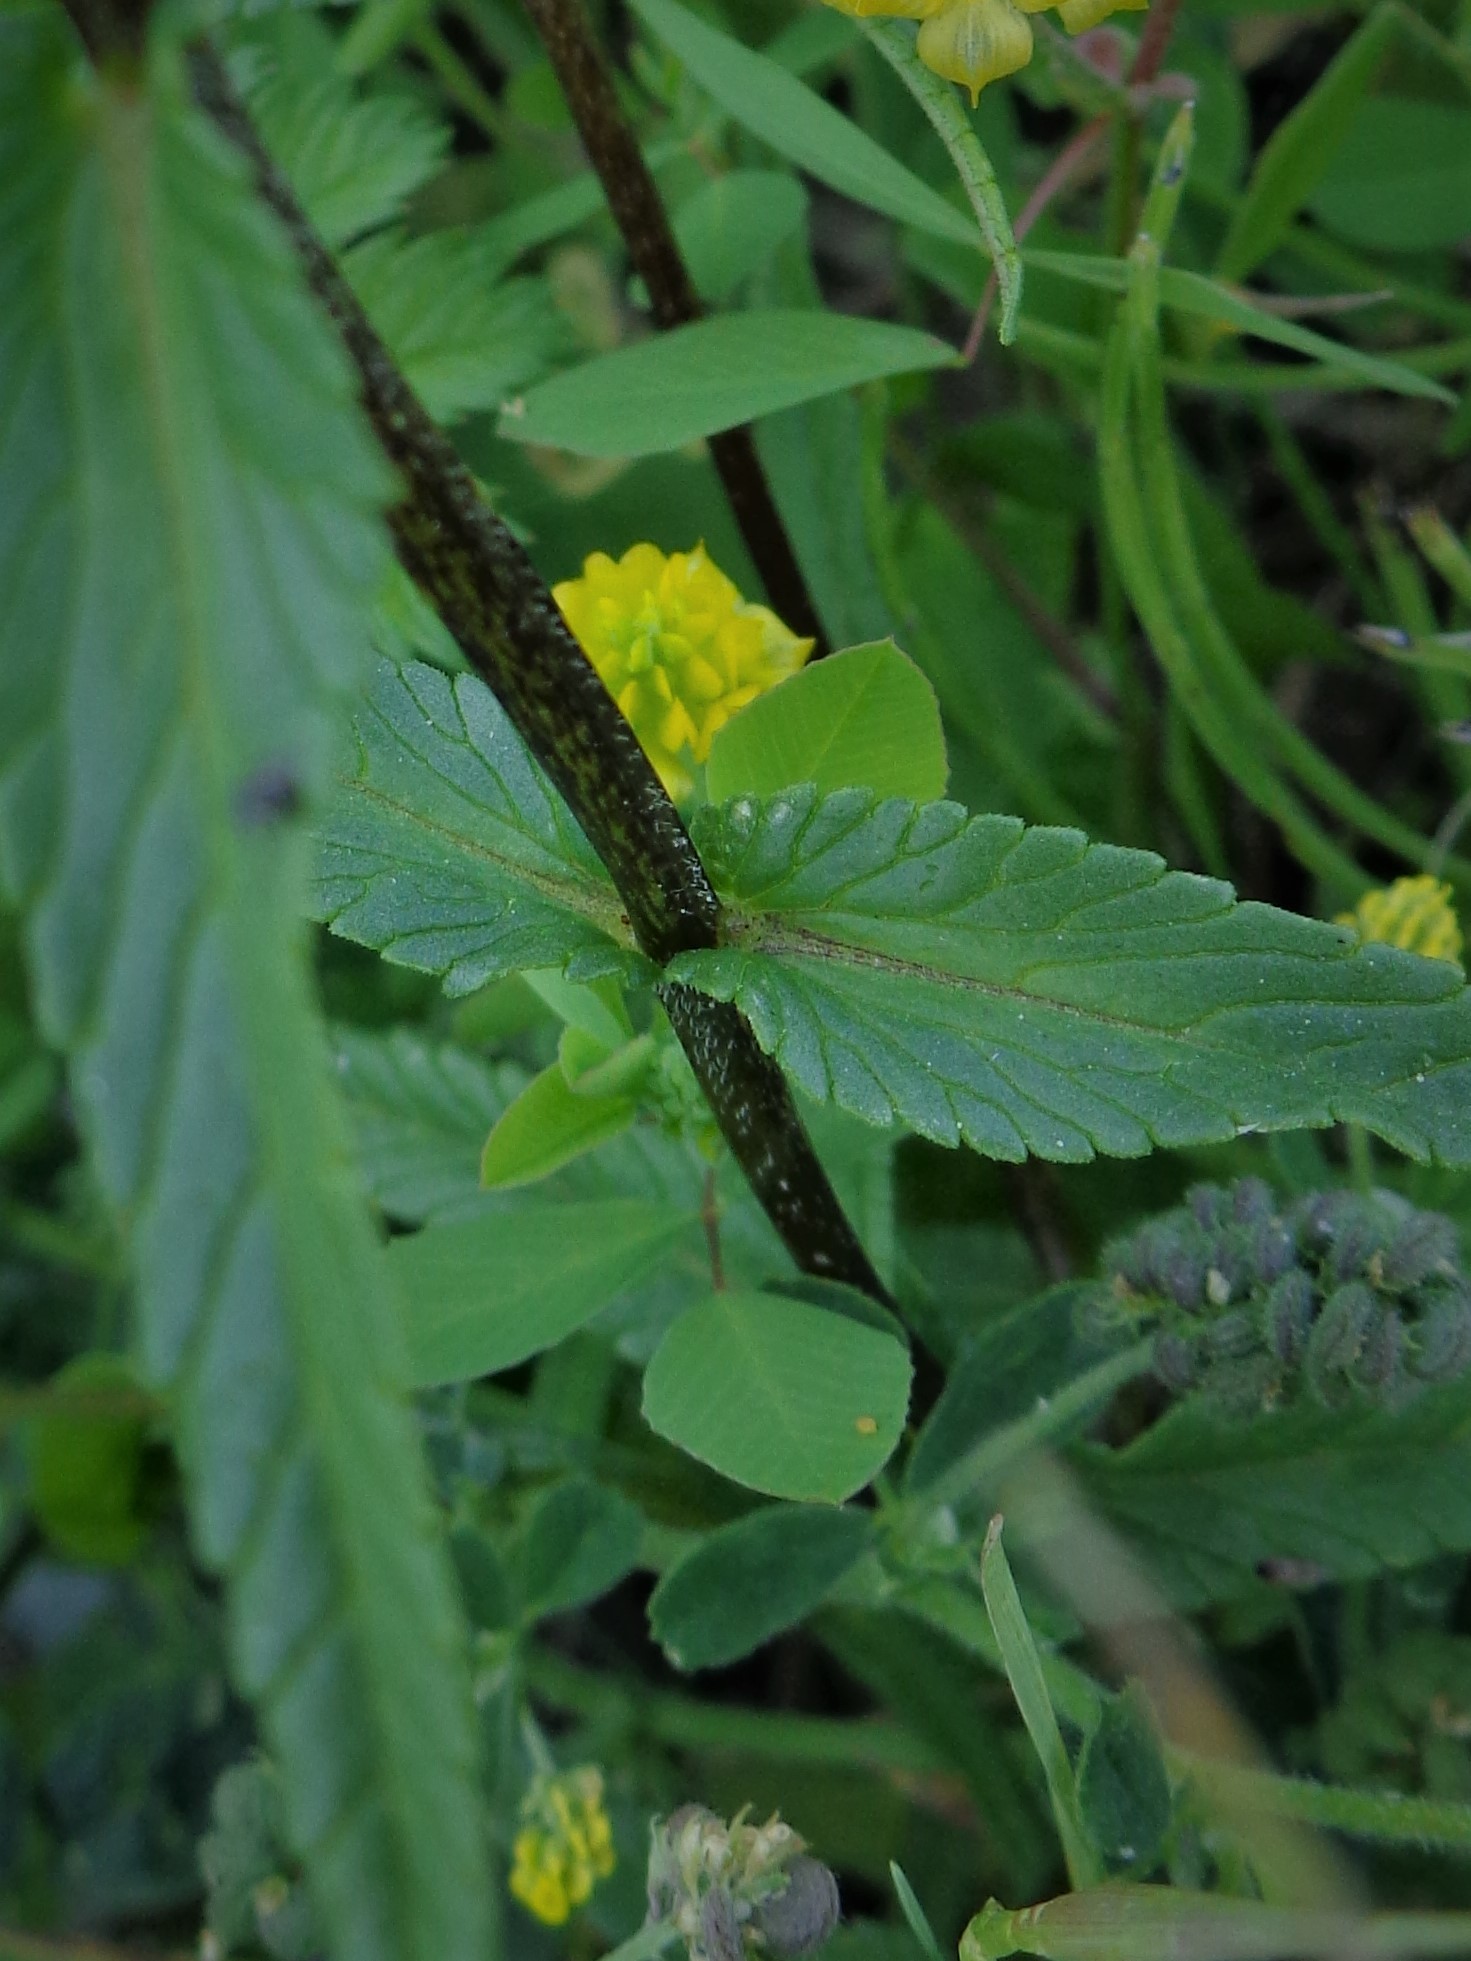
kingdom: Plantae
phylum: Tracheophyta
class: Magnoliopsida
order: Lamiales
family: Orobanchaceae
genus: Rhinanthus
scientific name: Rhinanthus serotinus
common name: Late-flowering yellow rattle
